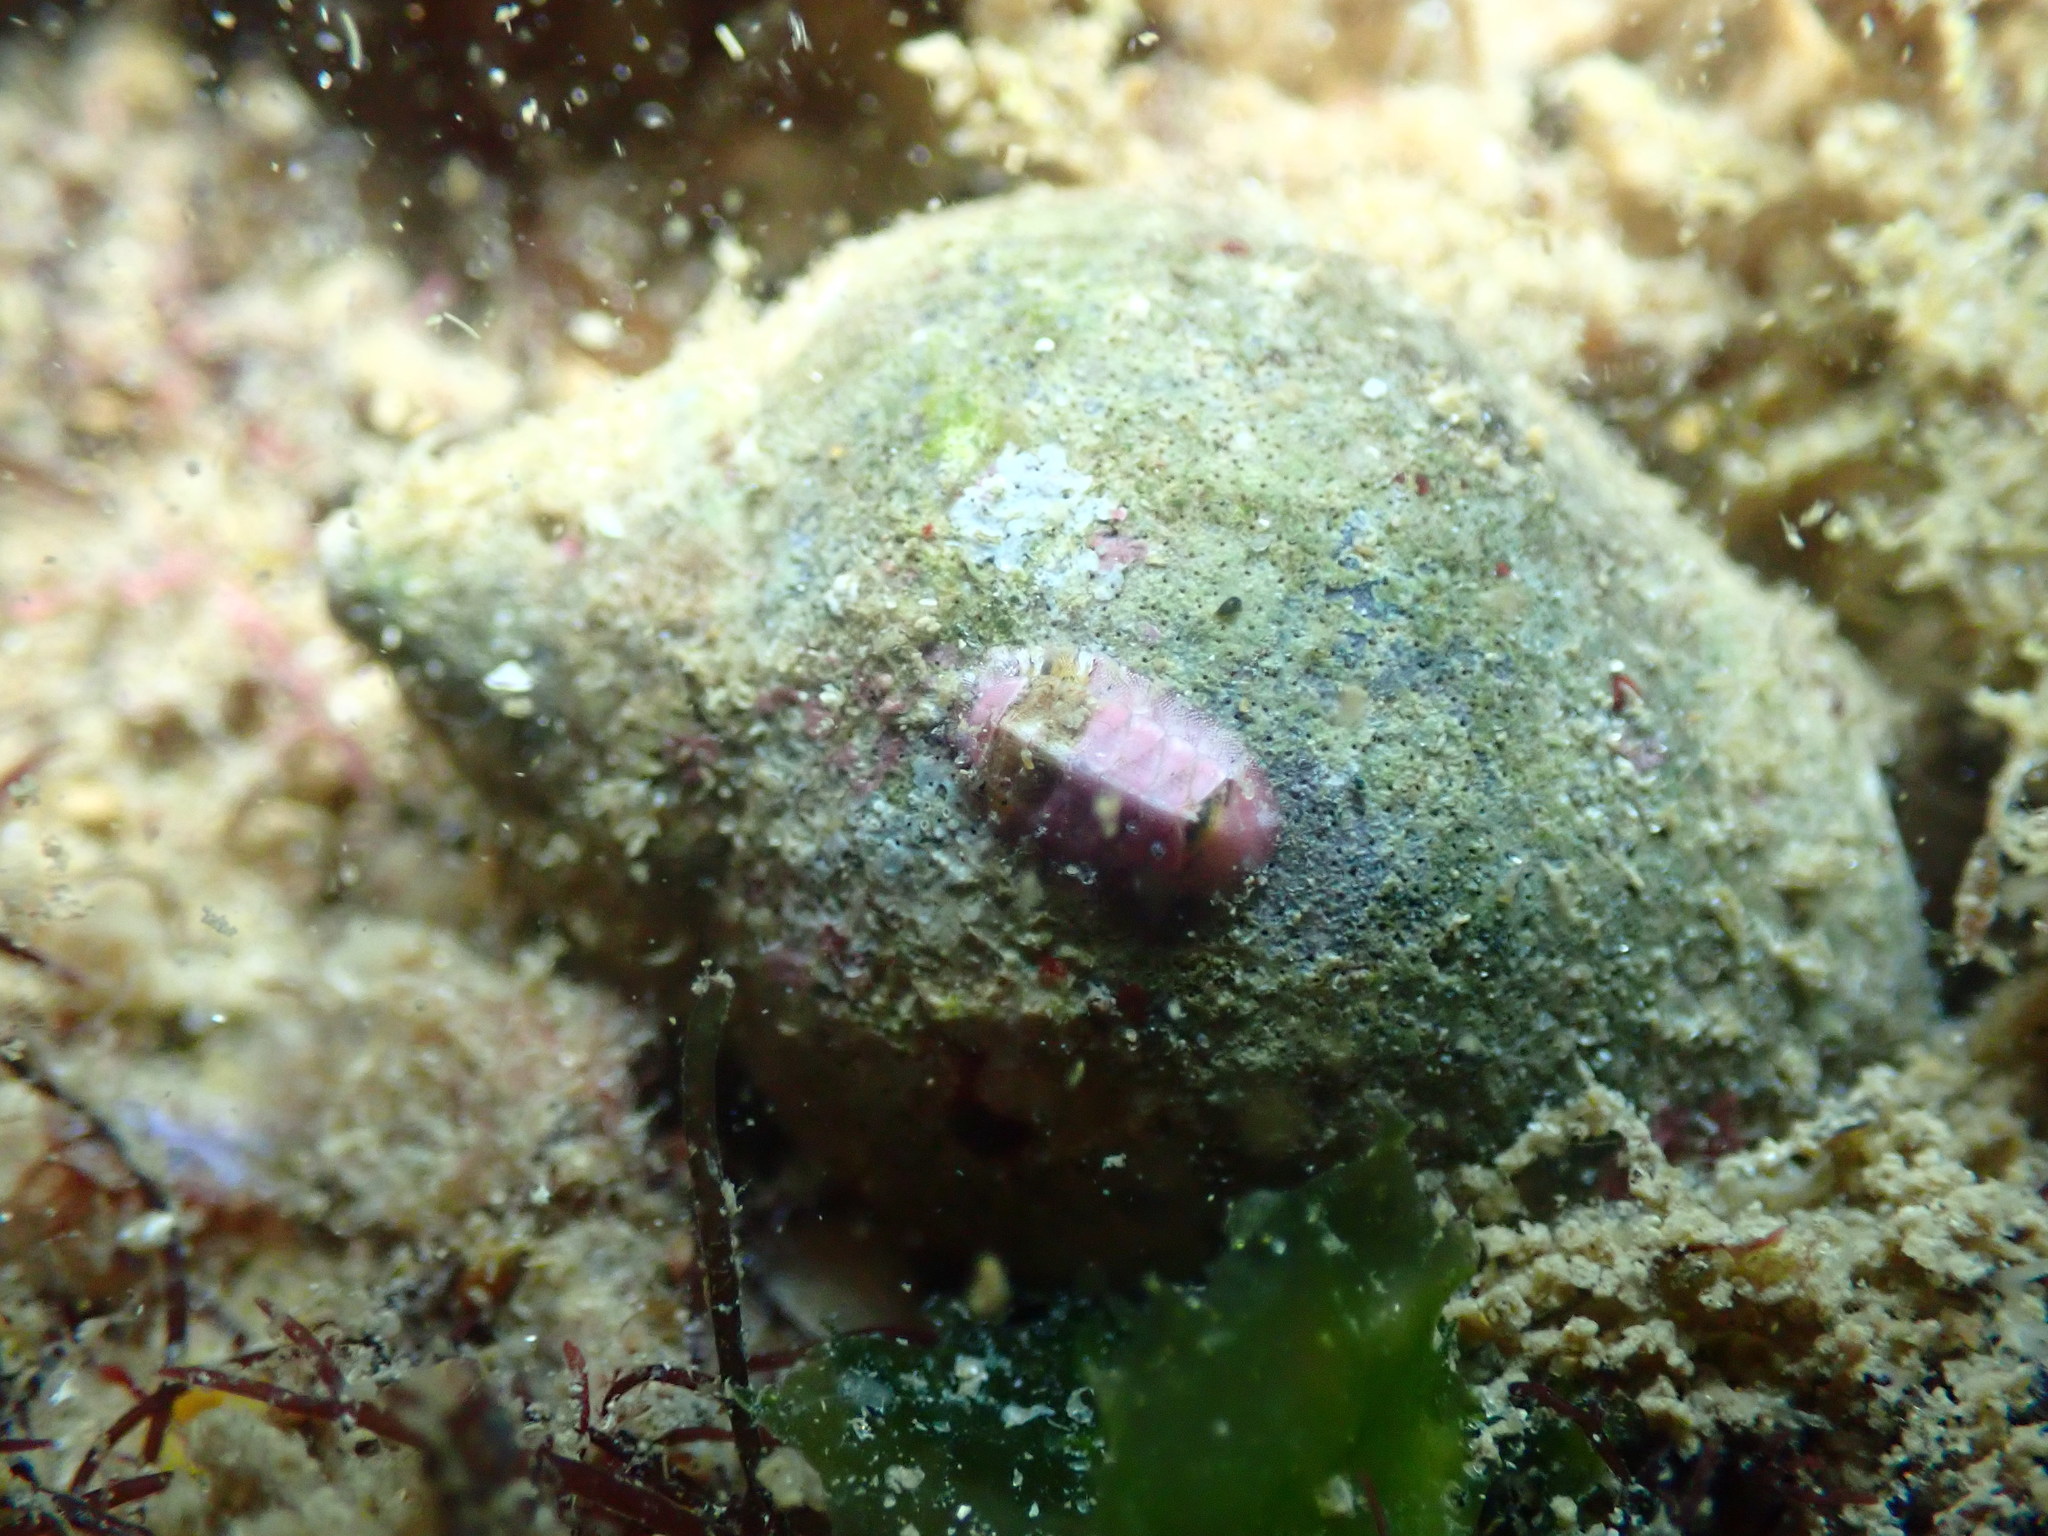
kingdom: Animalia
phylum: Mollusca
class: Gastropoda
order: Neogastropoda
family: Cominellidae
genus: Cominella
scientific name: Cominella adspersa
